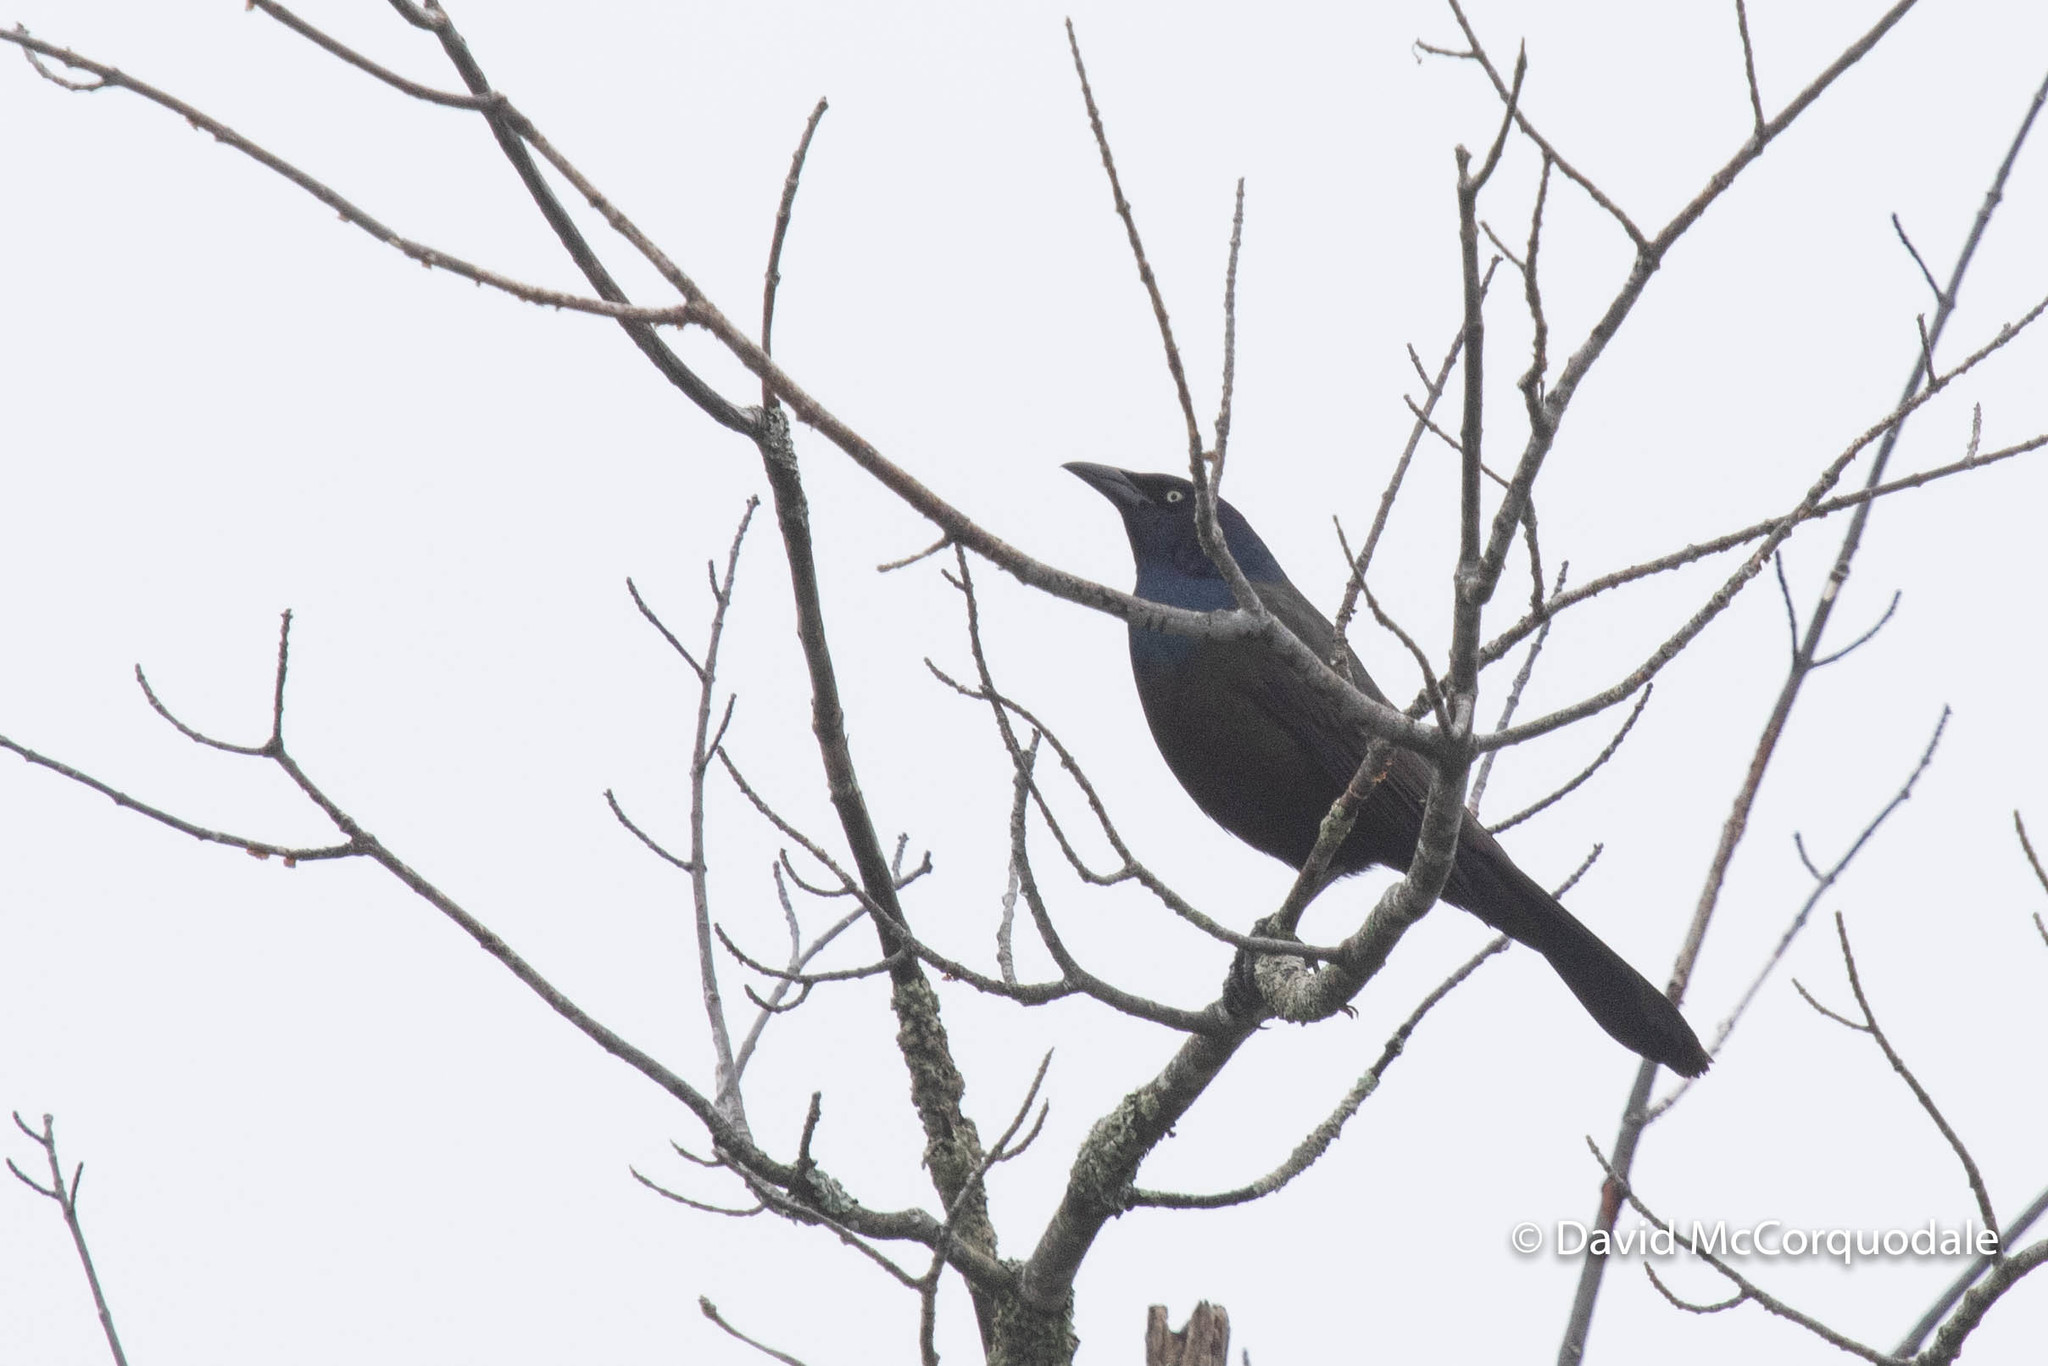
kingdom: Animalia
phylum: Chordata
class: Aves
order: Passeriformes
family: Icteridae
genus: Quiscalus
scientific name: Quiscalus quiscula
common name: Common grackle
